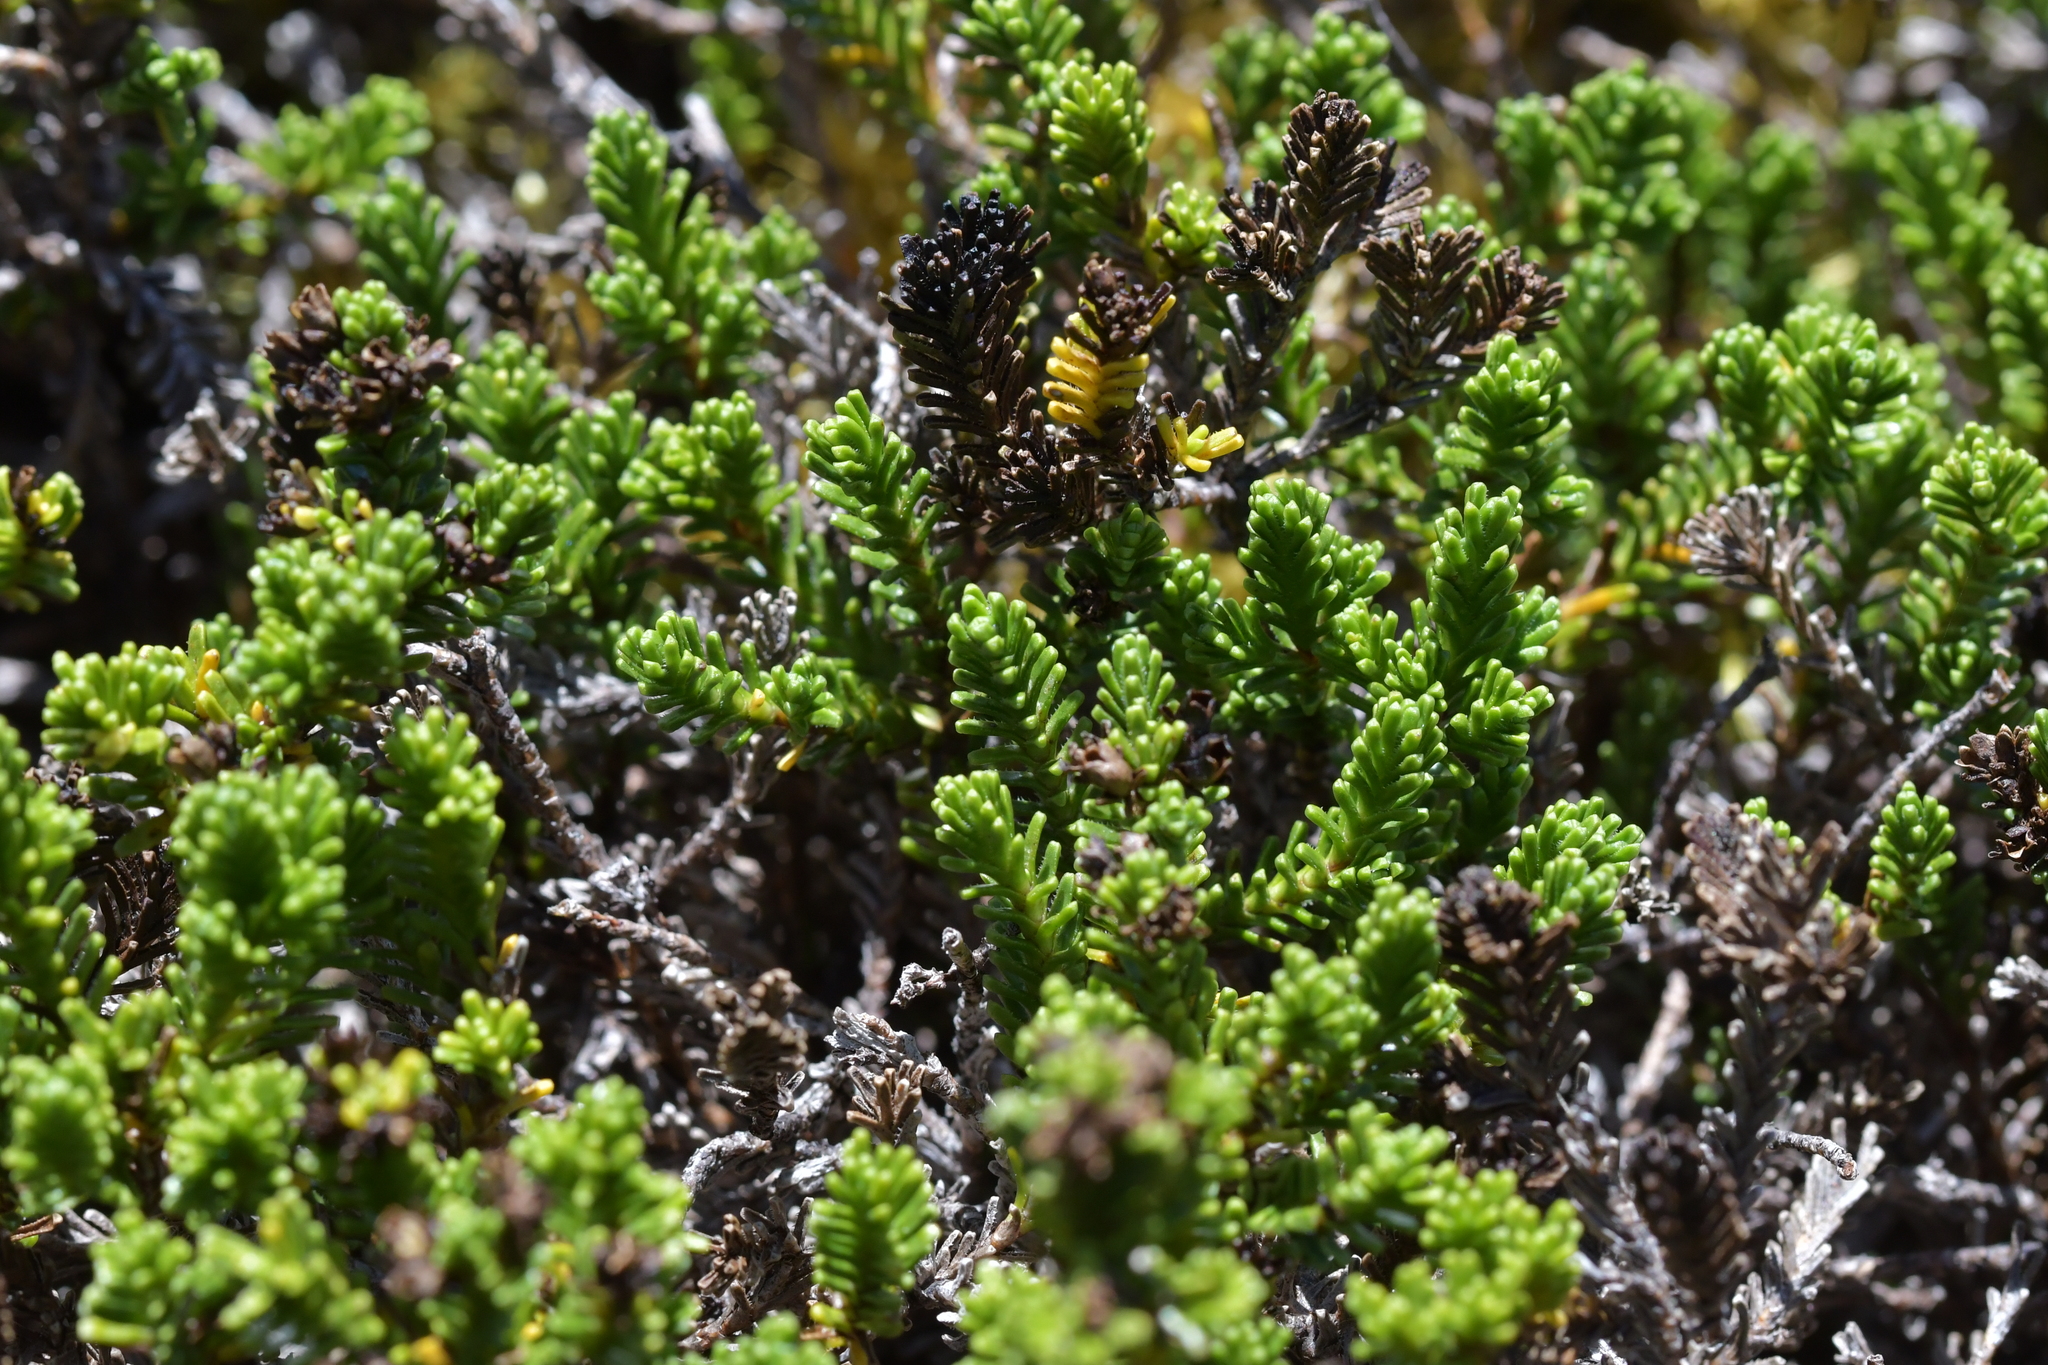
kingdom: Plantae
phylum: Tracheophyta
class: Magnoliopsida
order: Lamiales
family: Plantaginaceae
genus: Veronica
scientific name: Veronica hookeri
